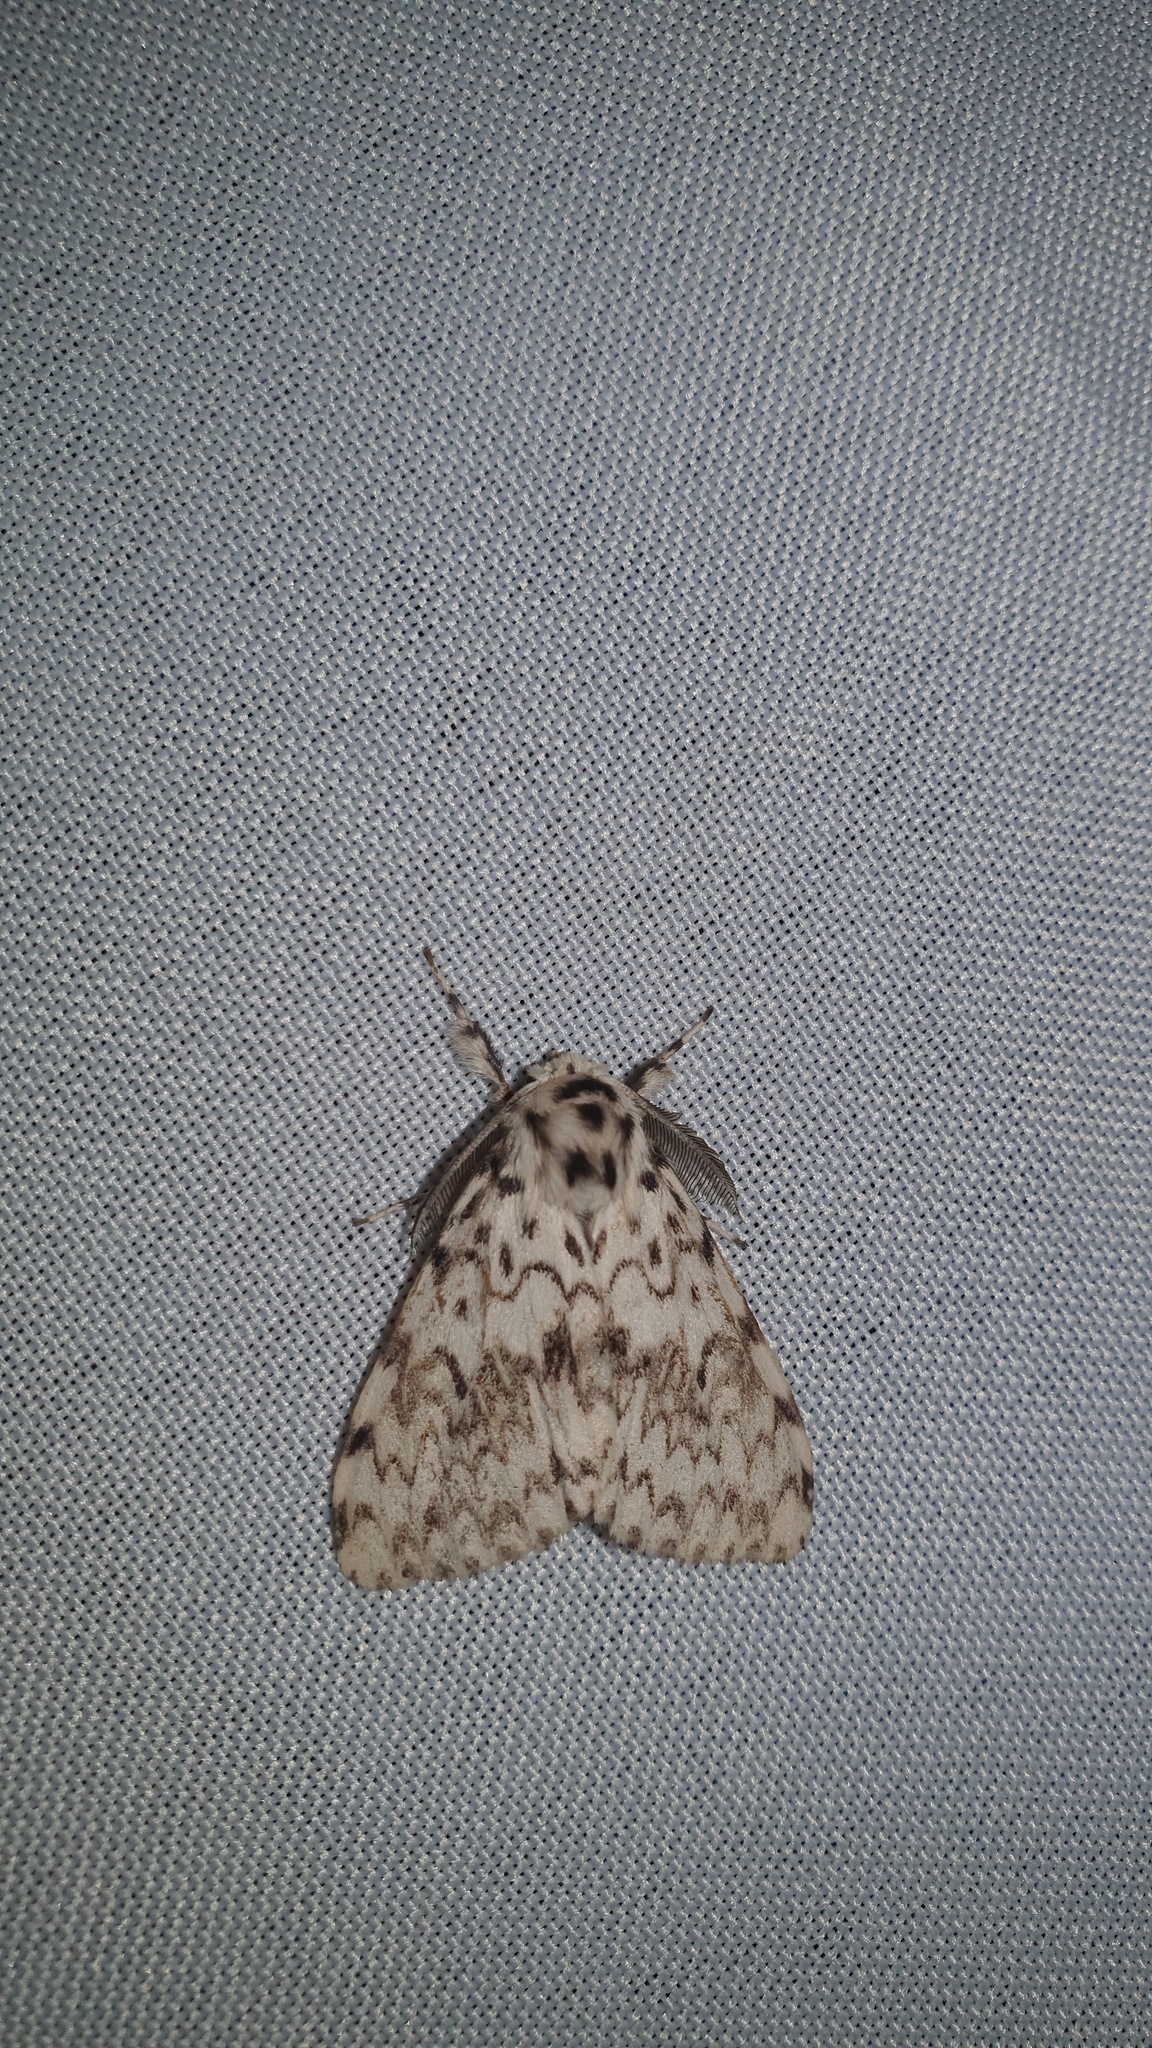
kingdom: Animalia
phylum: Arthropoda
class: Insecta
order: Lepidoptera
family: Erebidae
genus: Lymantria
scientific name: Lymantria monacha
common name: Black arches
